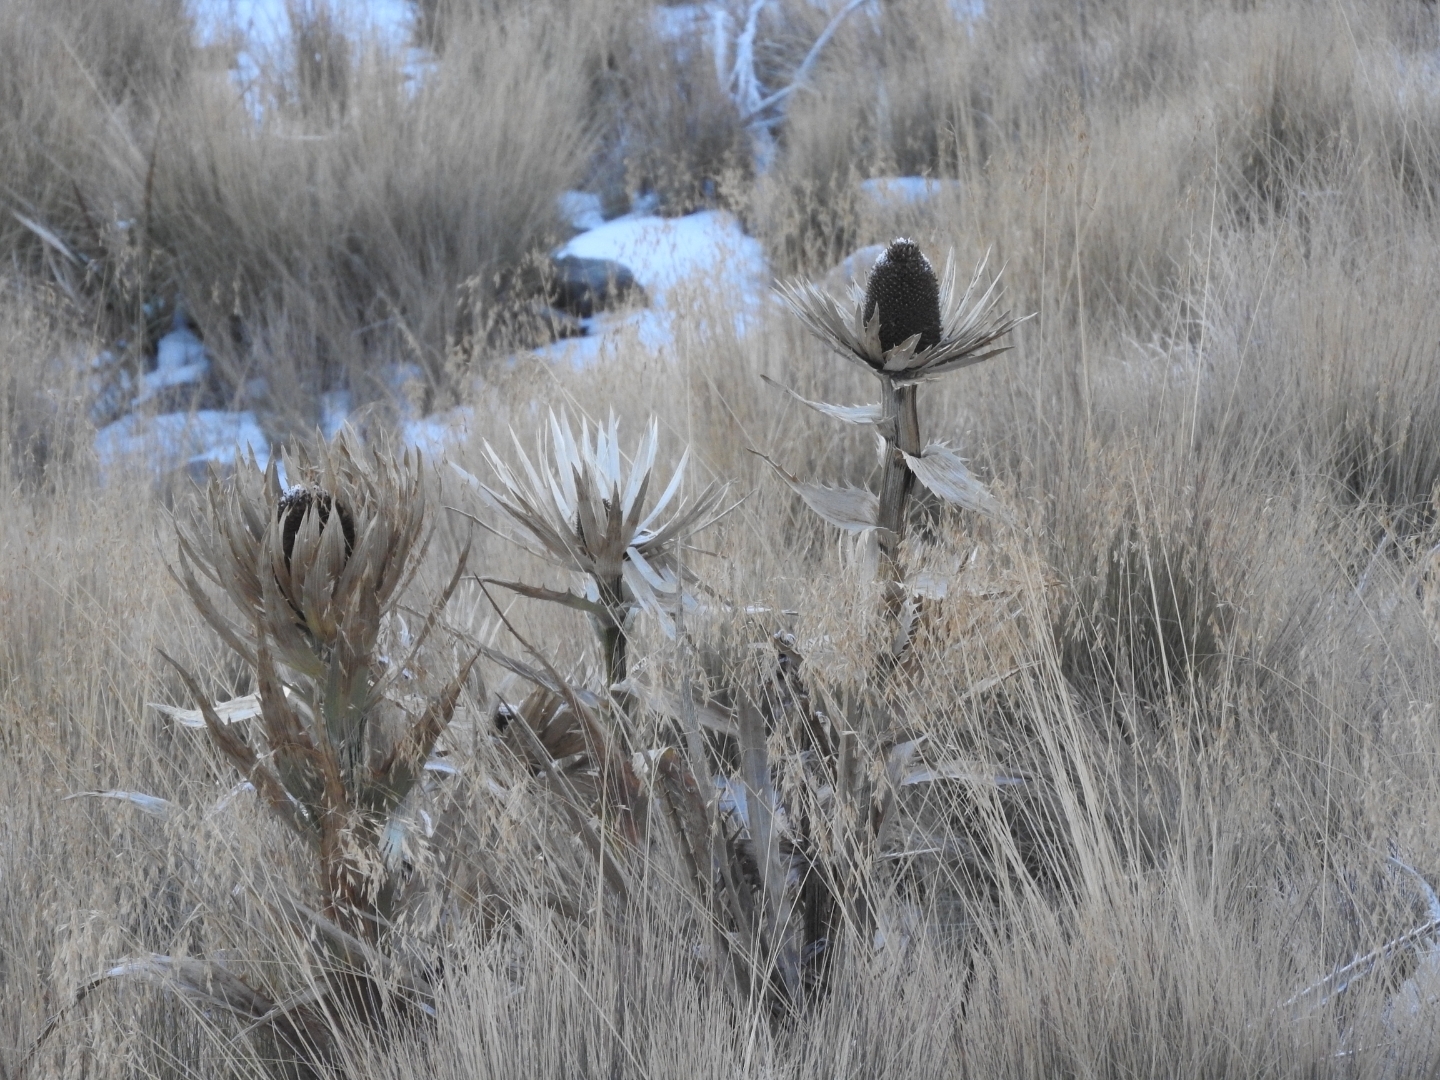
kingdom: Plantae
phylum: Tracheophyta
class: Magnoliopsida
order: Apiales
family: Apiaceae
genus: Eryngium
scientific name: Eryngium proteiflorum
